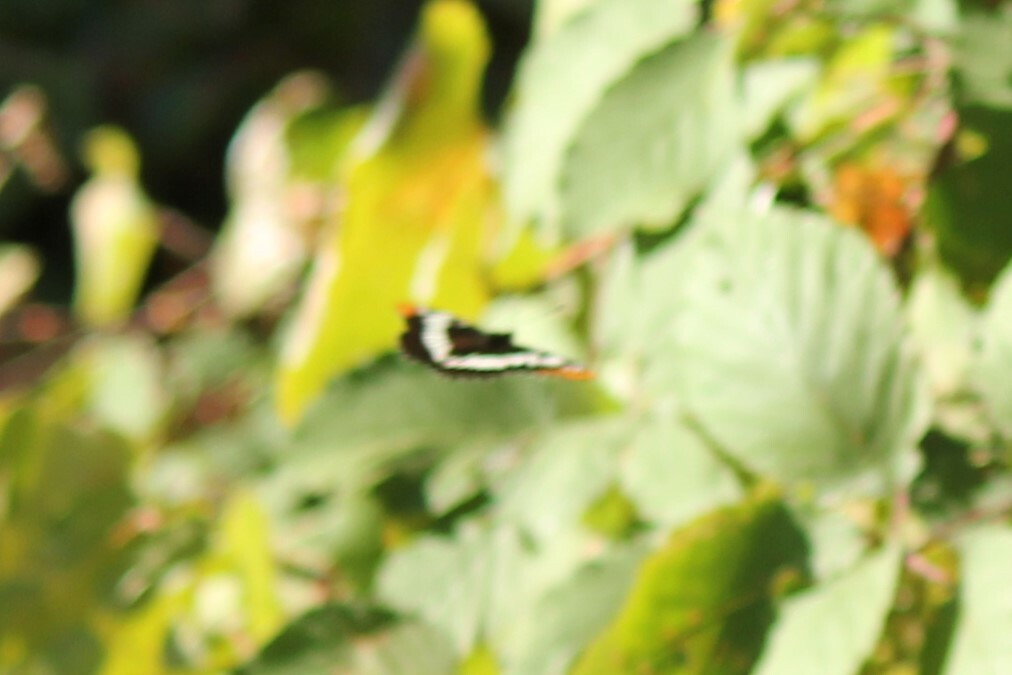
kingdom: Animalia
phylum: Arthropoda
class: Insecta
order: Lepidoptera
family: Nymphalidae
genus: Limenitis
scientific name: Limenitis lorquini
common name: Lorquin's admiral
